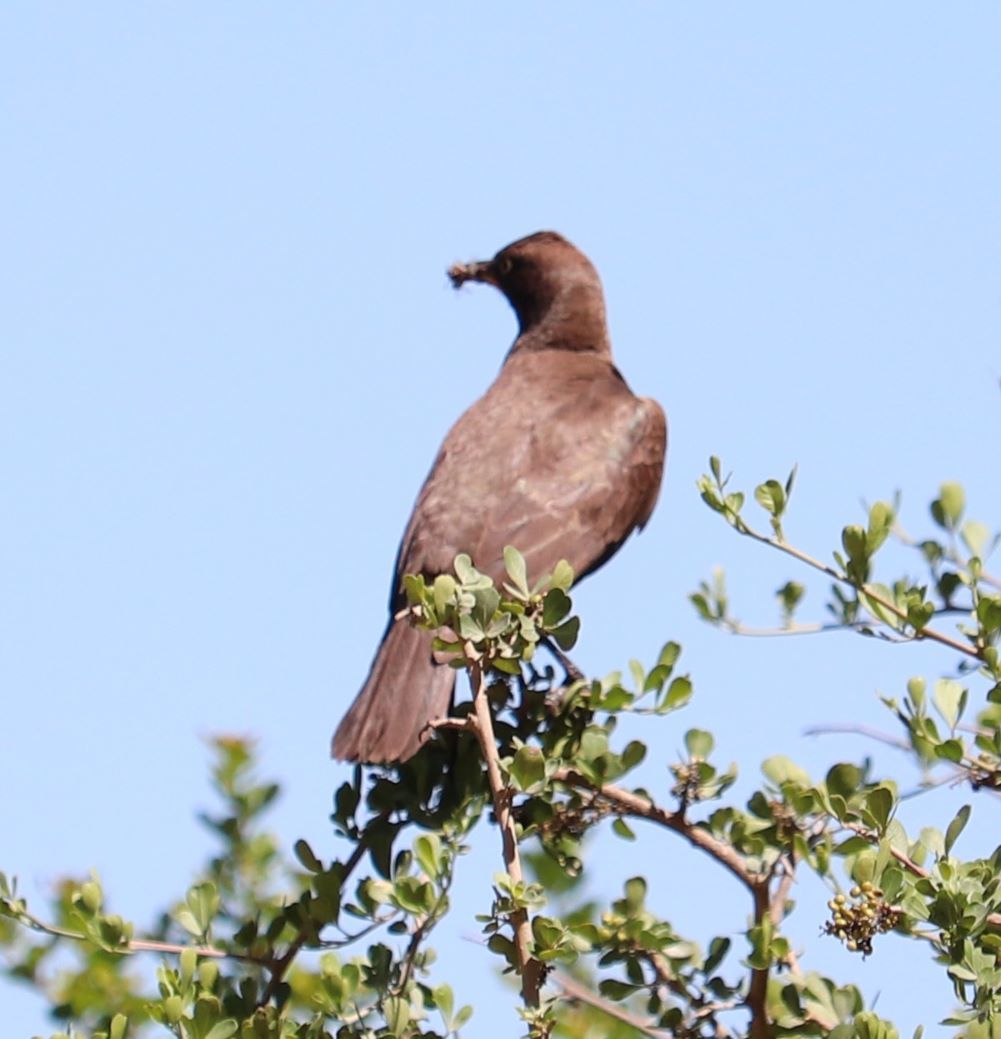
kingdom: Animalia
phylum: Chordata
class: Aves
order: Passeriformes
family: Sturnidae
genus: Lamprotornis
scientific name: Lamprotornis bicolor
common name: Pied starling
